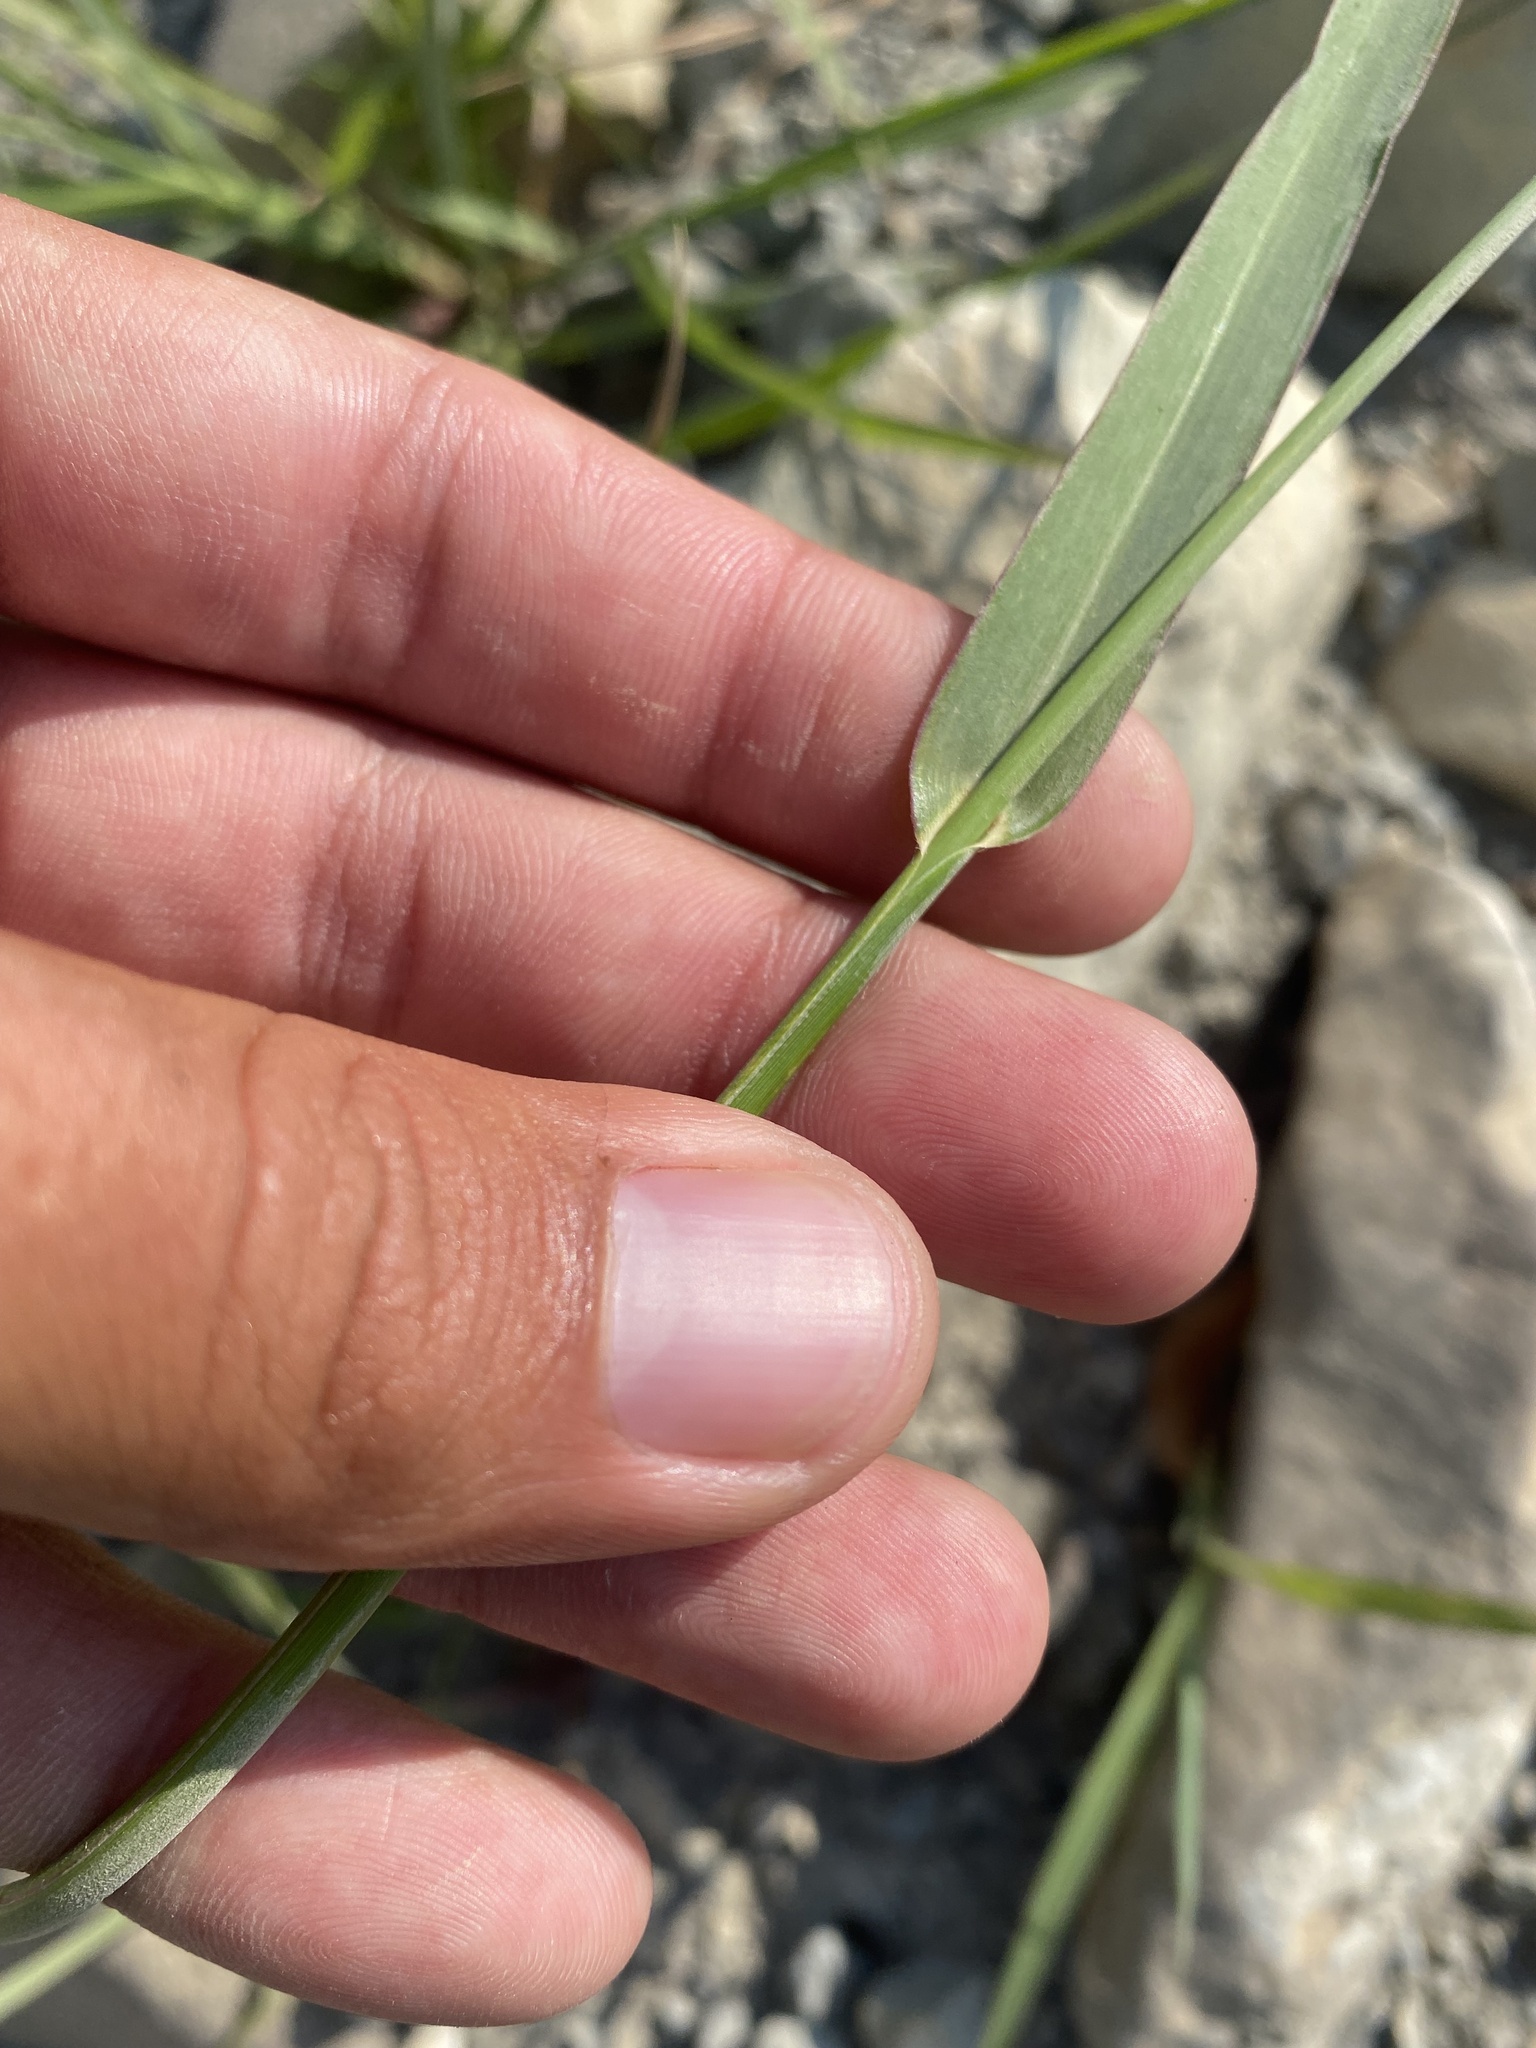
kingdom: Plantae
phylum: Tracheophyta
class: Liliopsida
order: Poales
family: Poaceae
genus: Echinochloa
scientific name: Echinochloa crus-galli
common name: Cockspur
